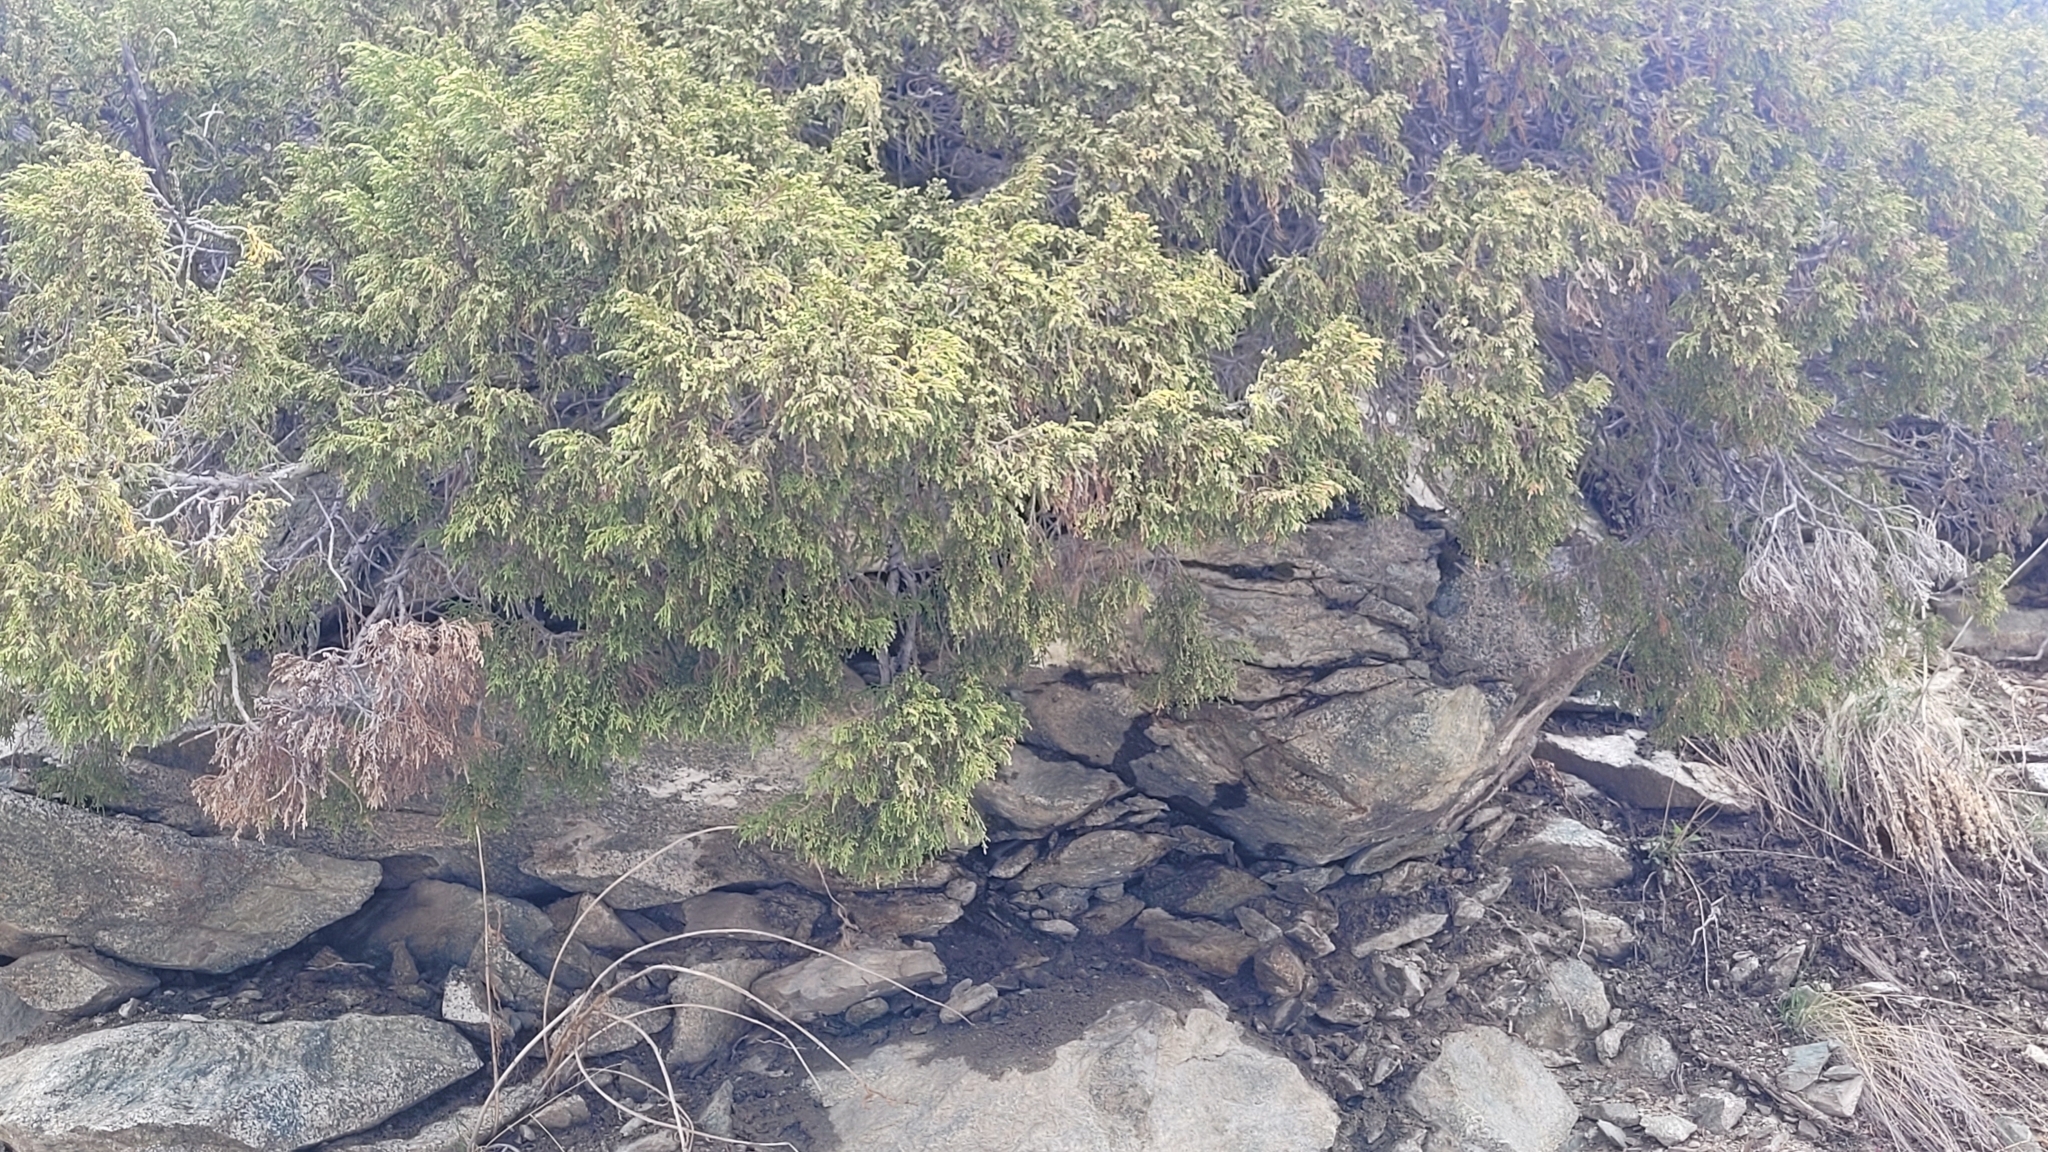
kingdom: Plantae
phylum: Tracheophyta
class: Pinopsida
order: Pinales
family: Cupressaceae
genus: Juniperus
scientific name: Juniperus pseudosabina
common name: Turkestan juniper
